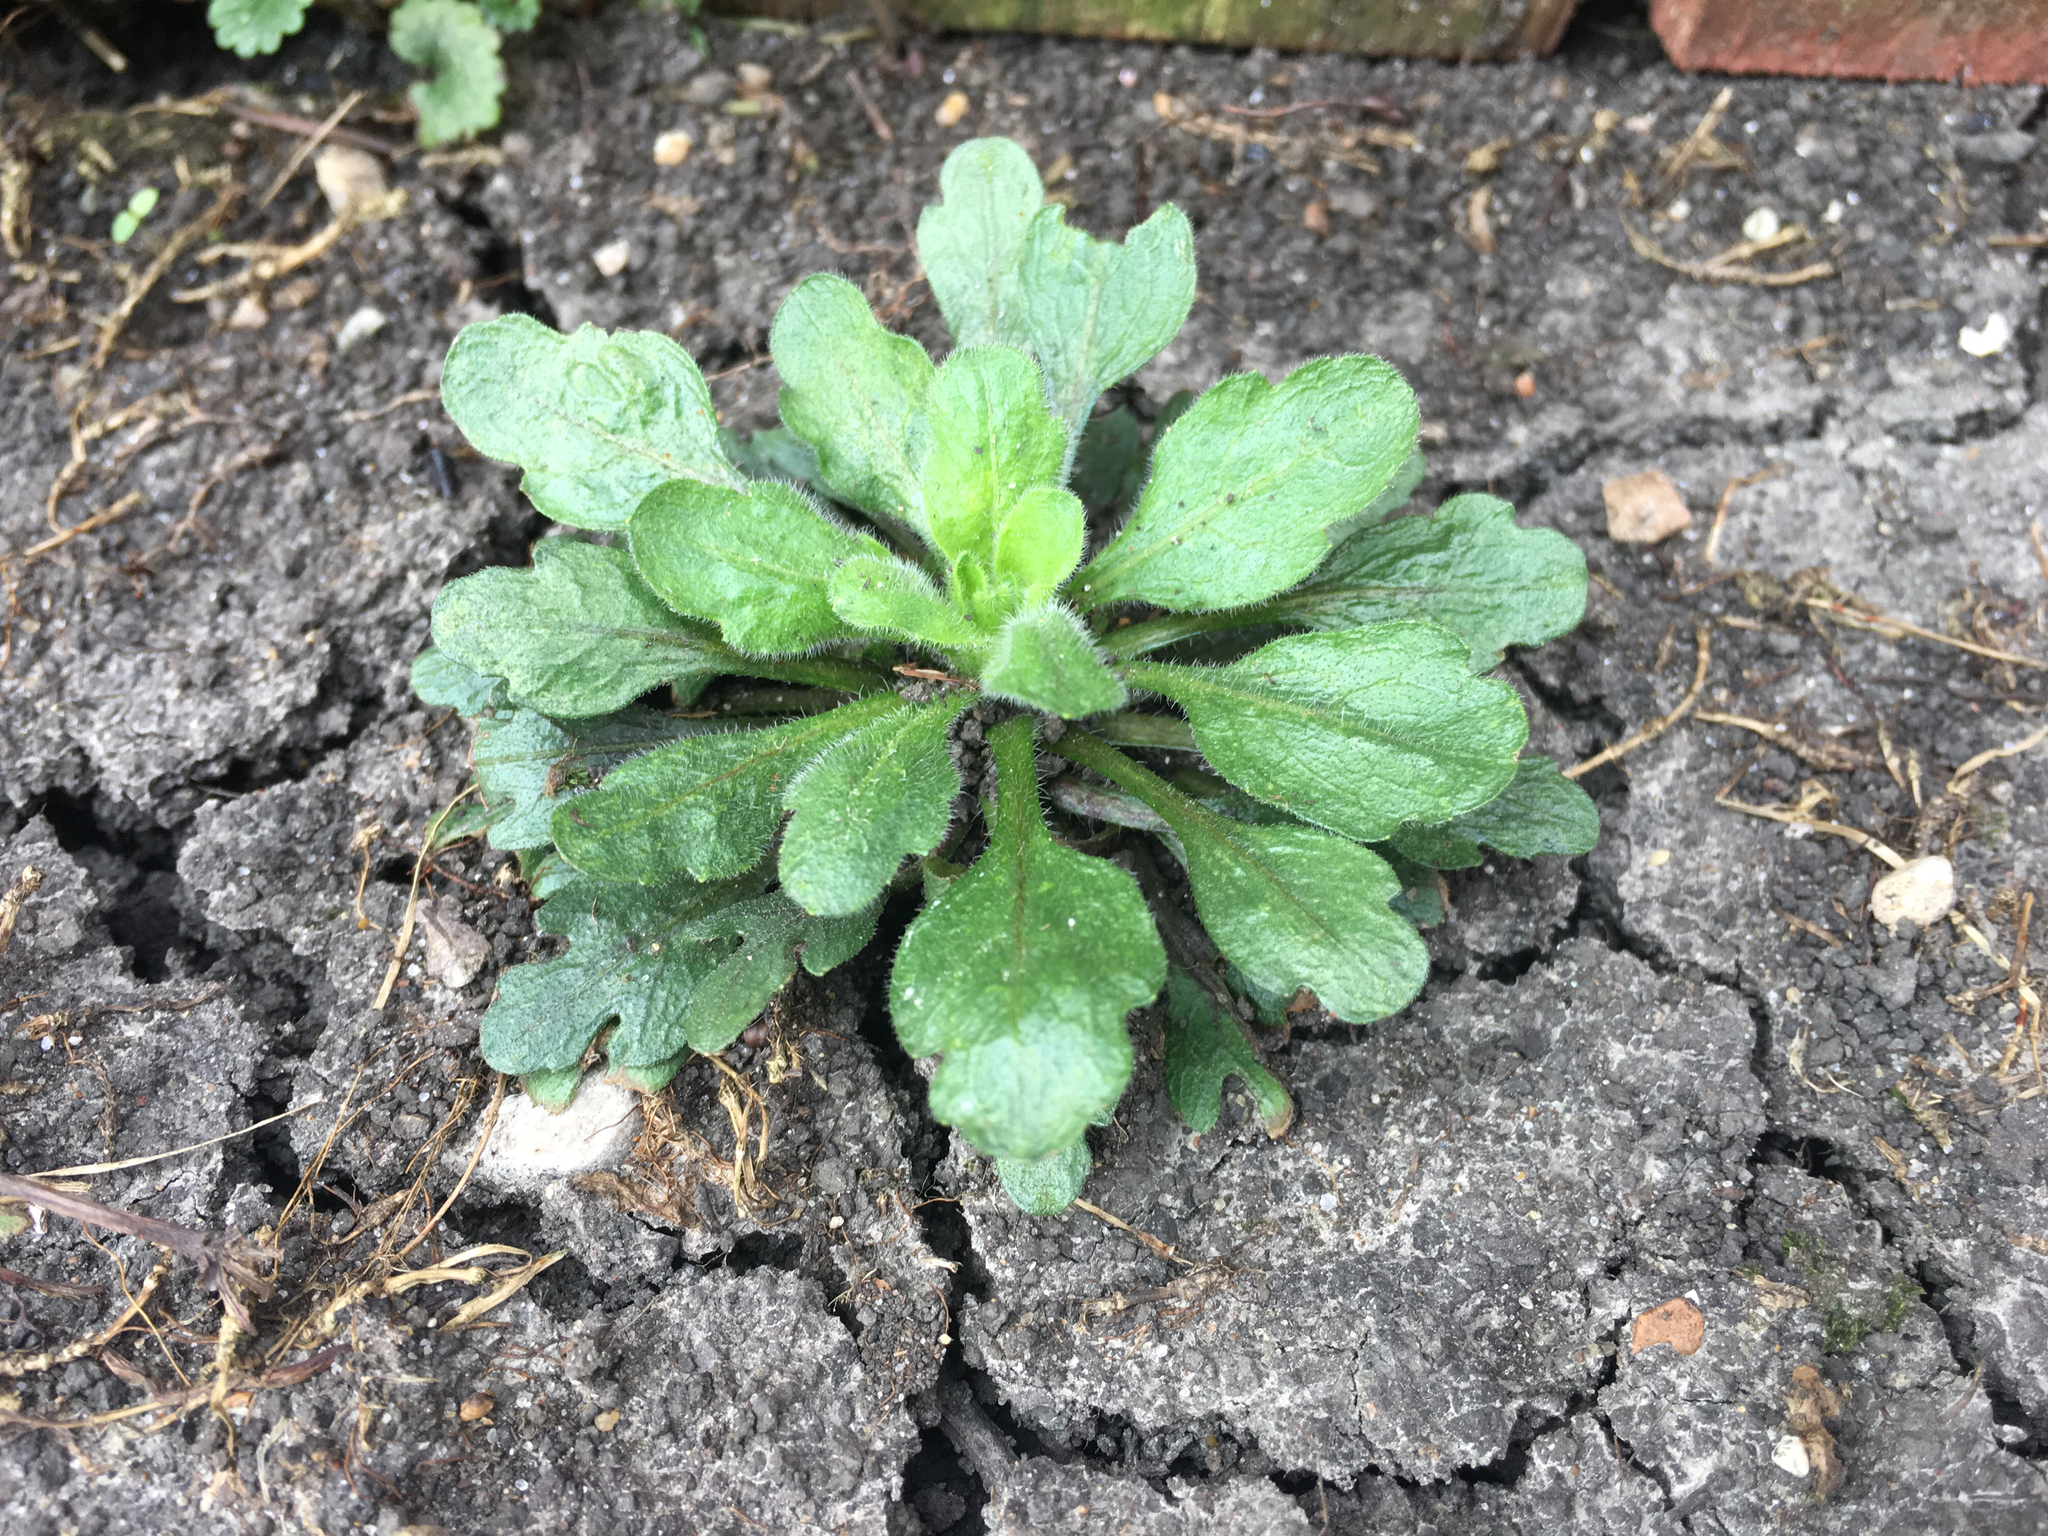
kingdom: Plantae
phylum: Tracheophyta
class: Magnoliopsida
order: Asterales
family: Asteraceae
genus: Erigeron
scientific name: Erigeron annuus
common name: Tall fleabane
